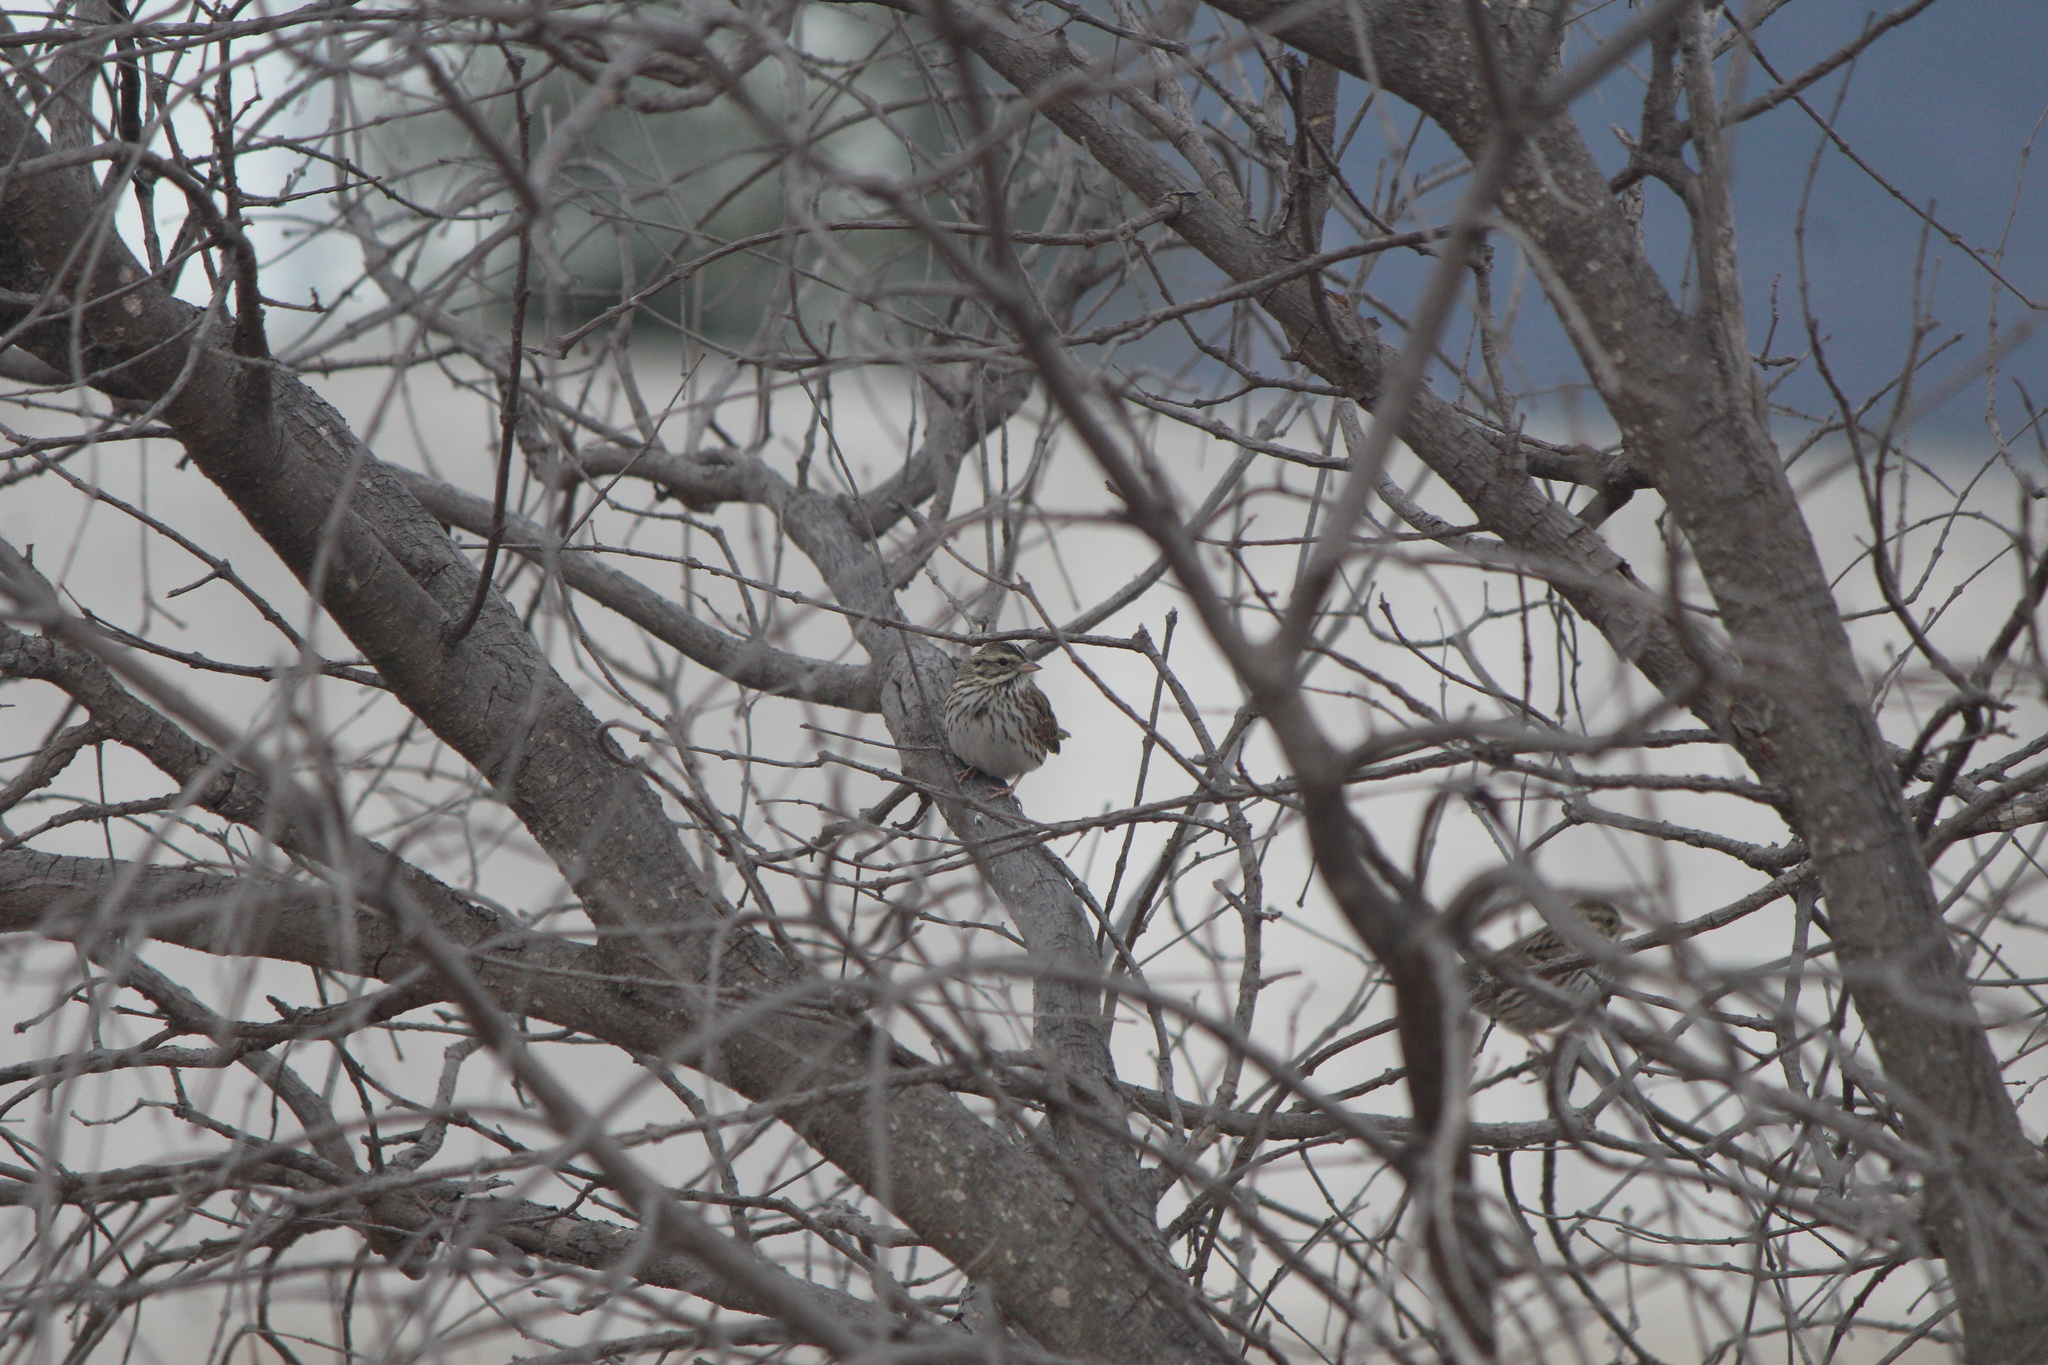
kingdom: Animalia
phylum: Chordata
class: Aves
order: Passeriformes
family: Passerellidae
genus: Passerculus
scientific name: Passerculus sandwichensis
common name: Savannah sparrow
